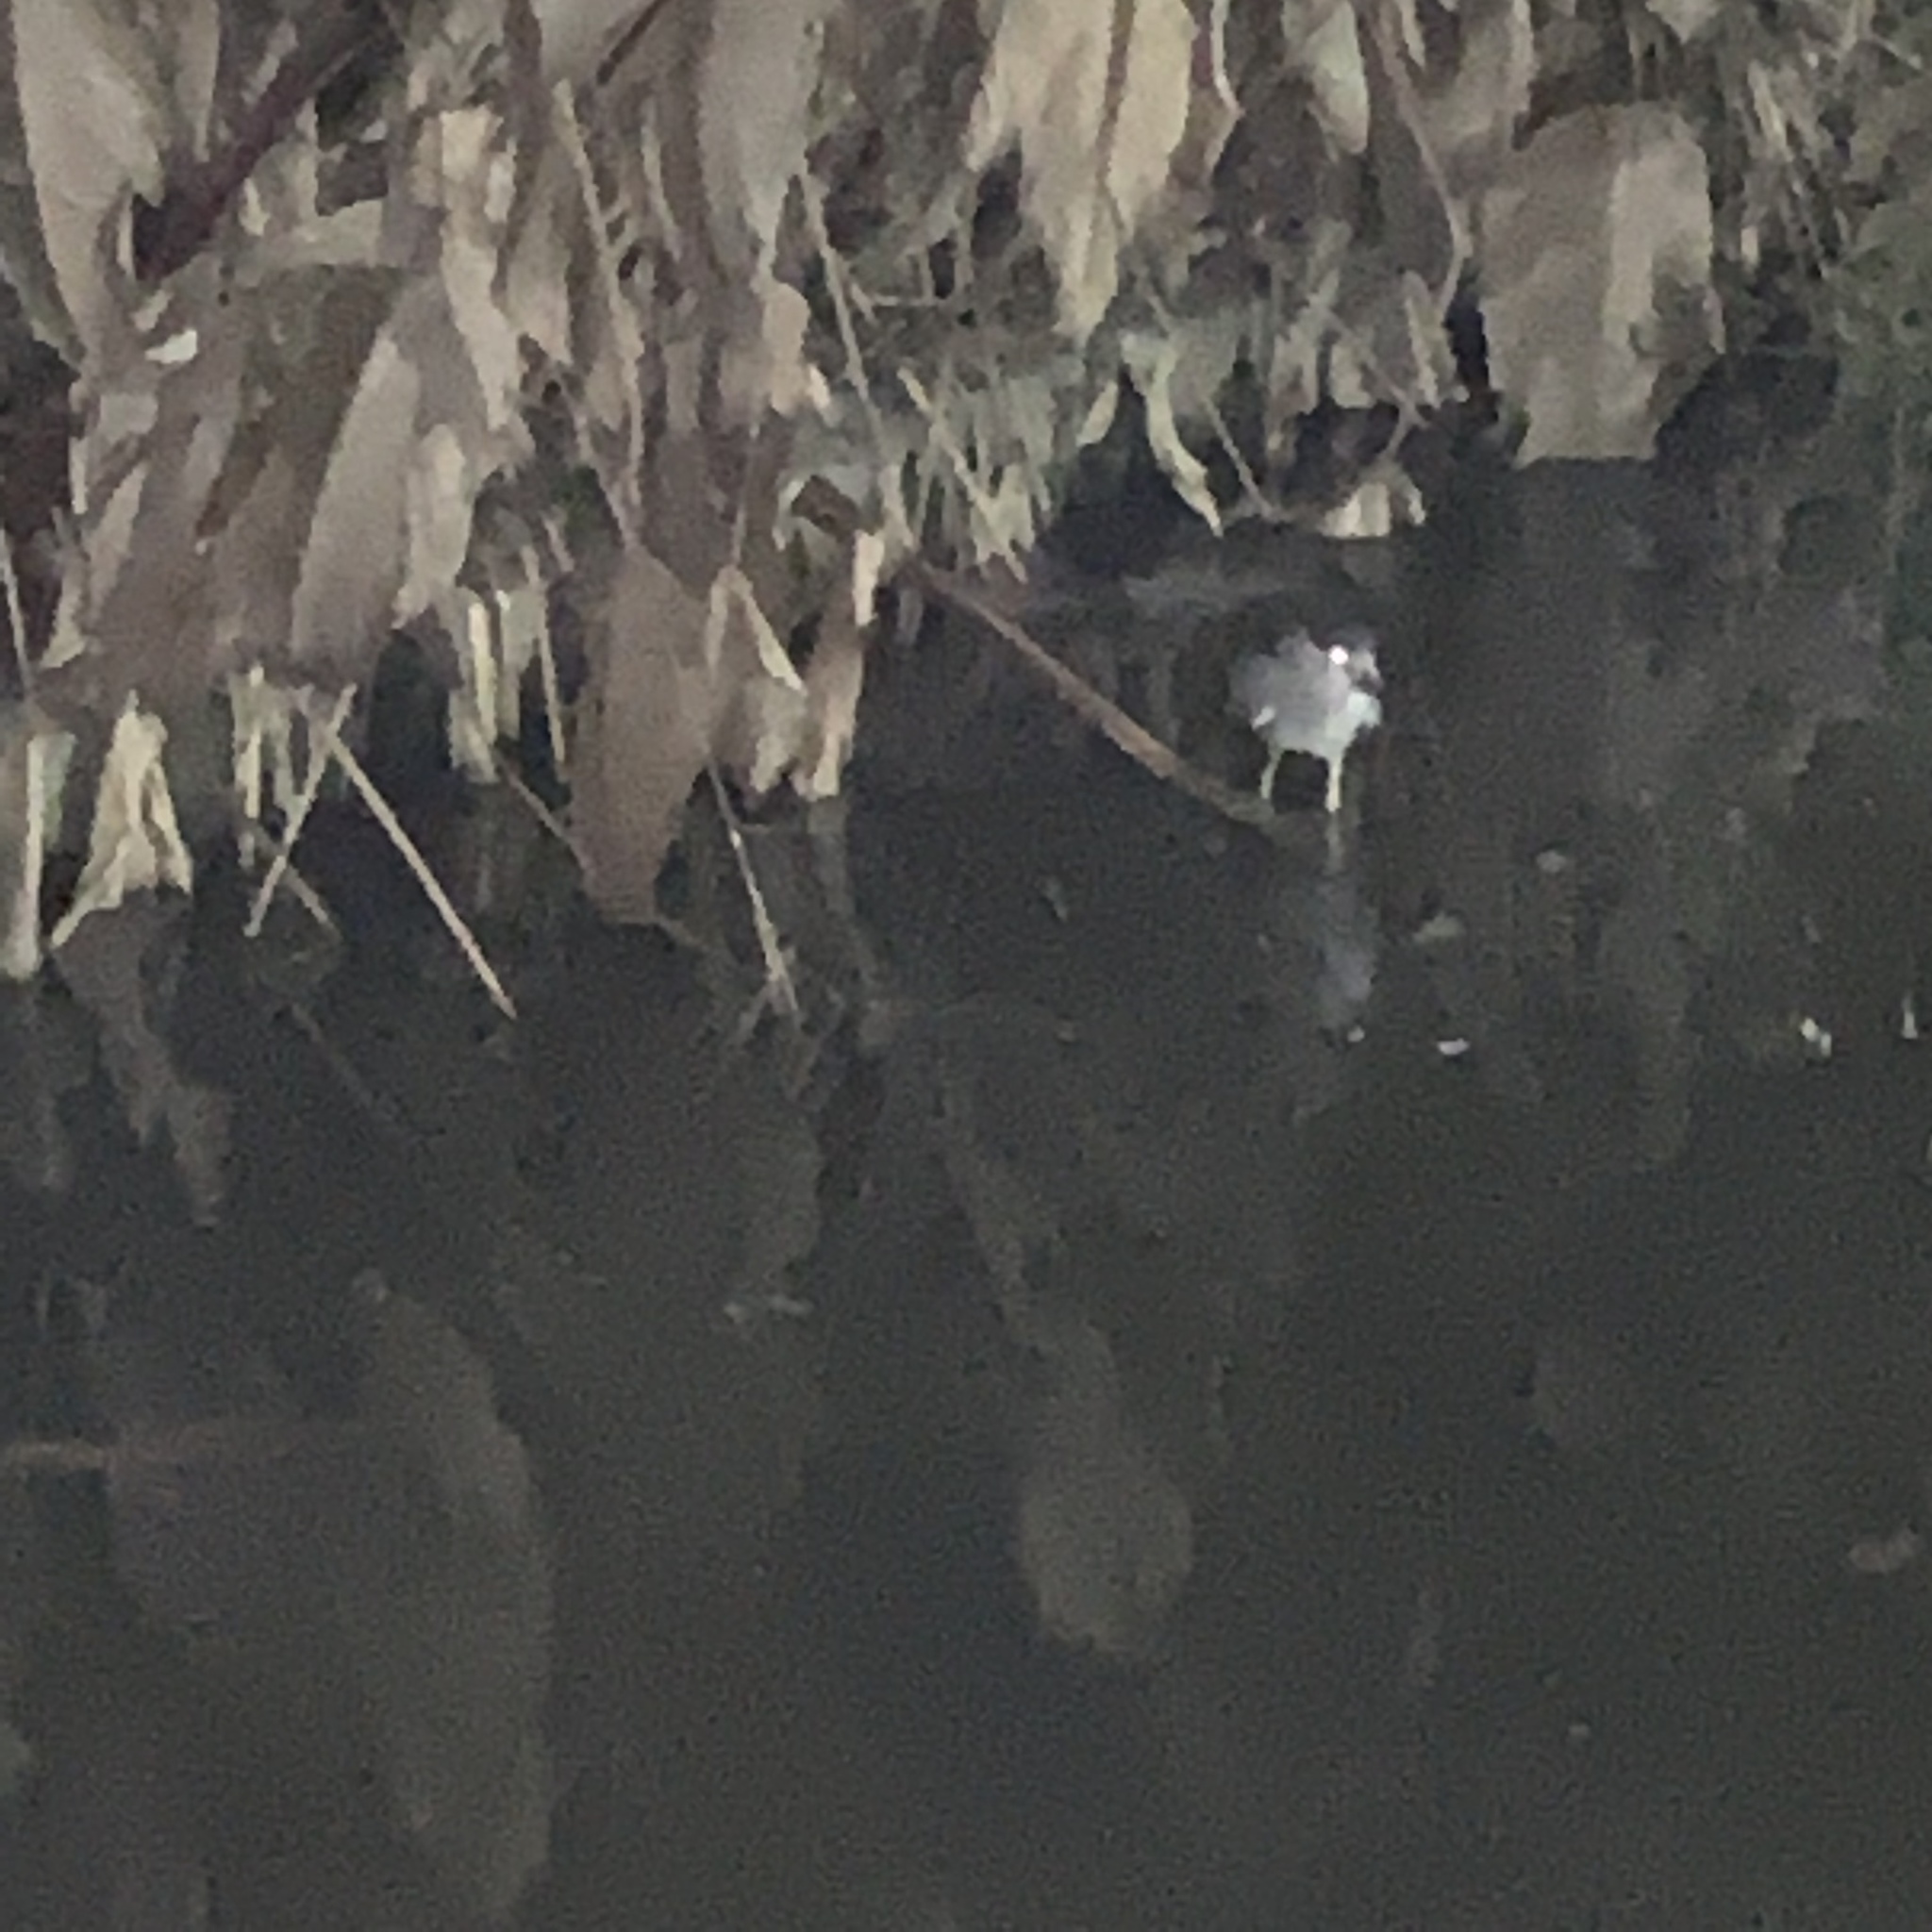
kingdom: Animalia
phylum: Chordata
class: Aves
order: Pelecaniformes
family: Ardeidae
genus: Nycticorax
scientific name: Nycticorax nycticorax
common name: Black-crowned night heron
